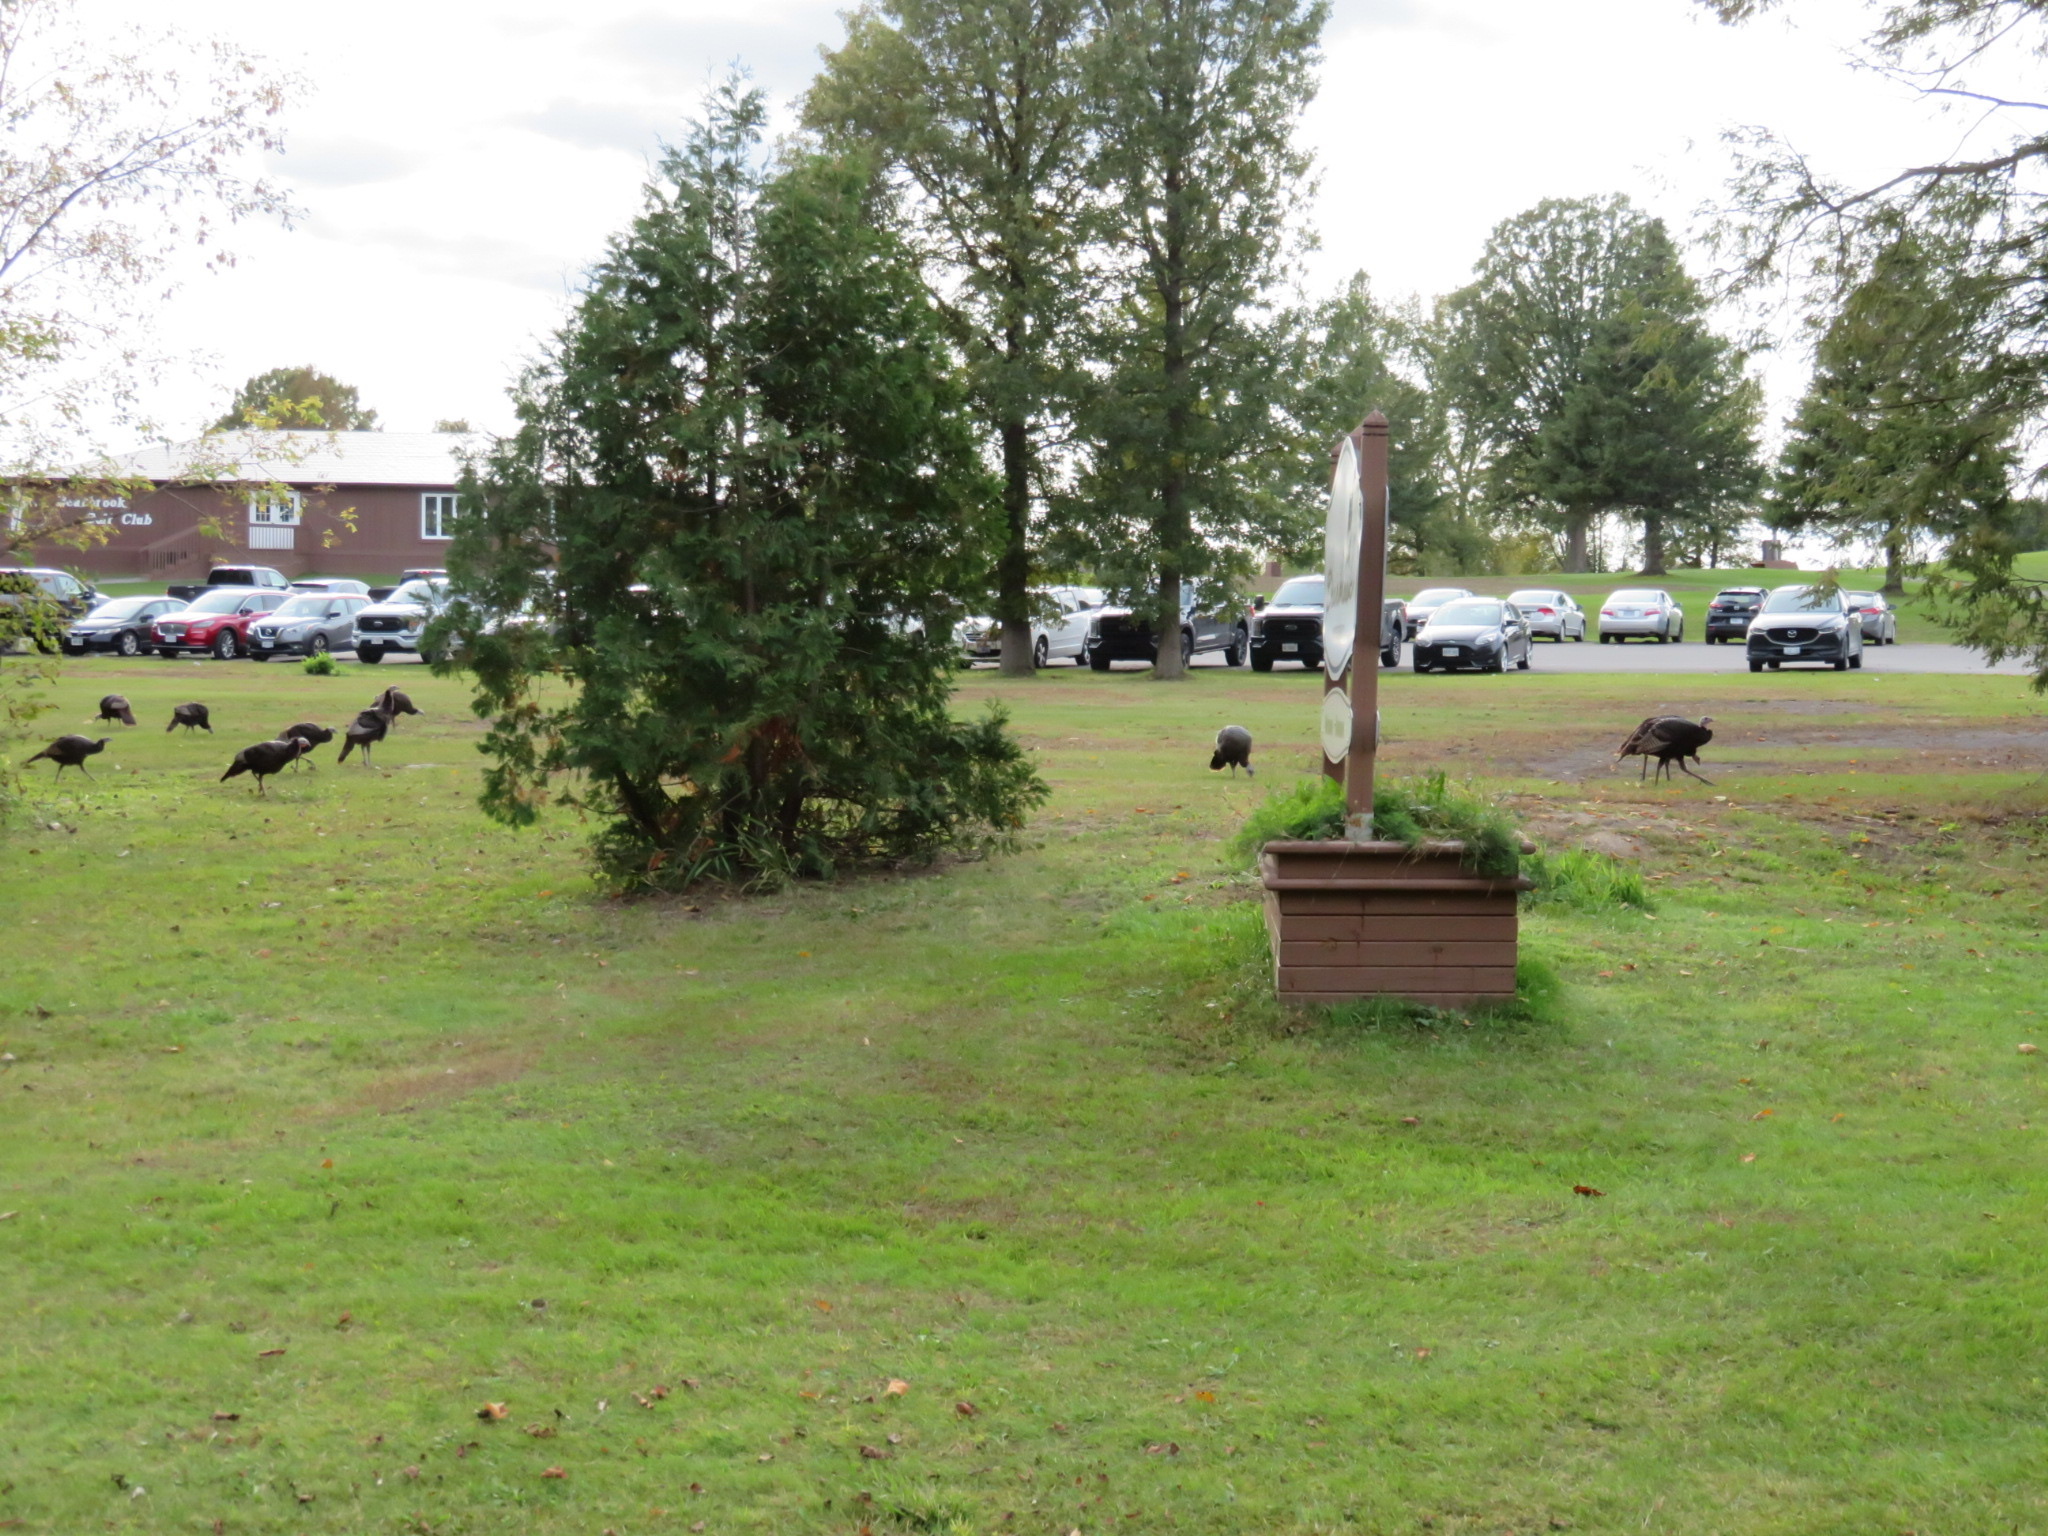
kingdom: Animalia
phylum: Chordata
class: Aves
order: Galliformes
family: Phasianidae
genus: Meleagris
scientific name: Meleagris gallopavo
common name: Wild turkey
